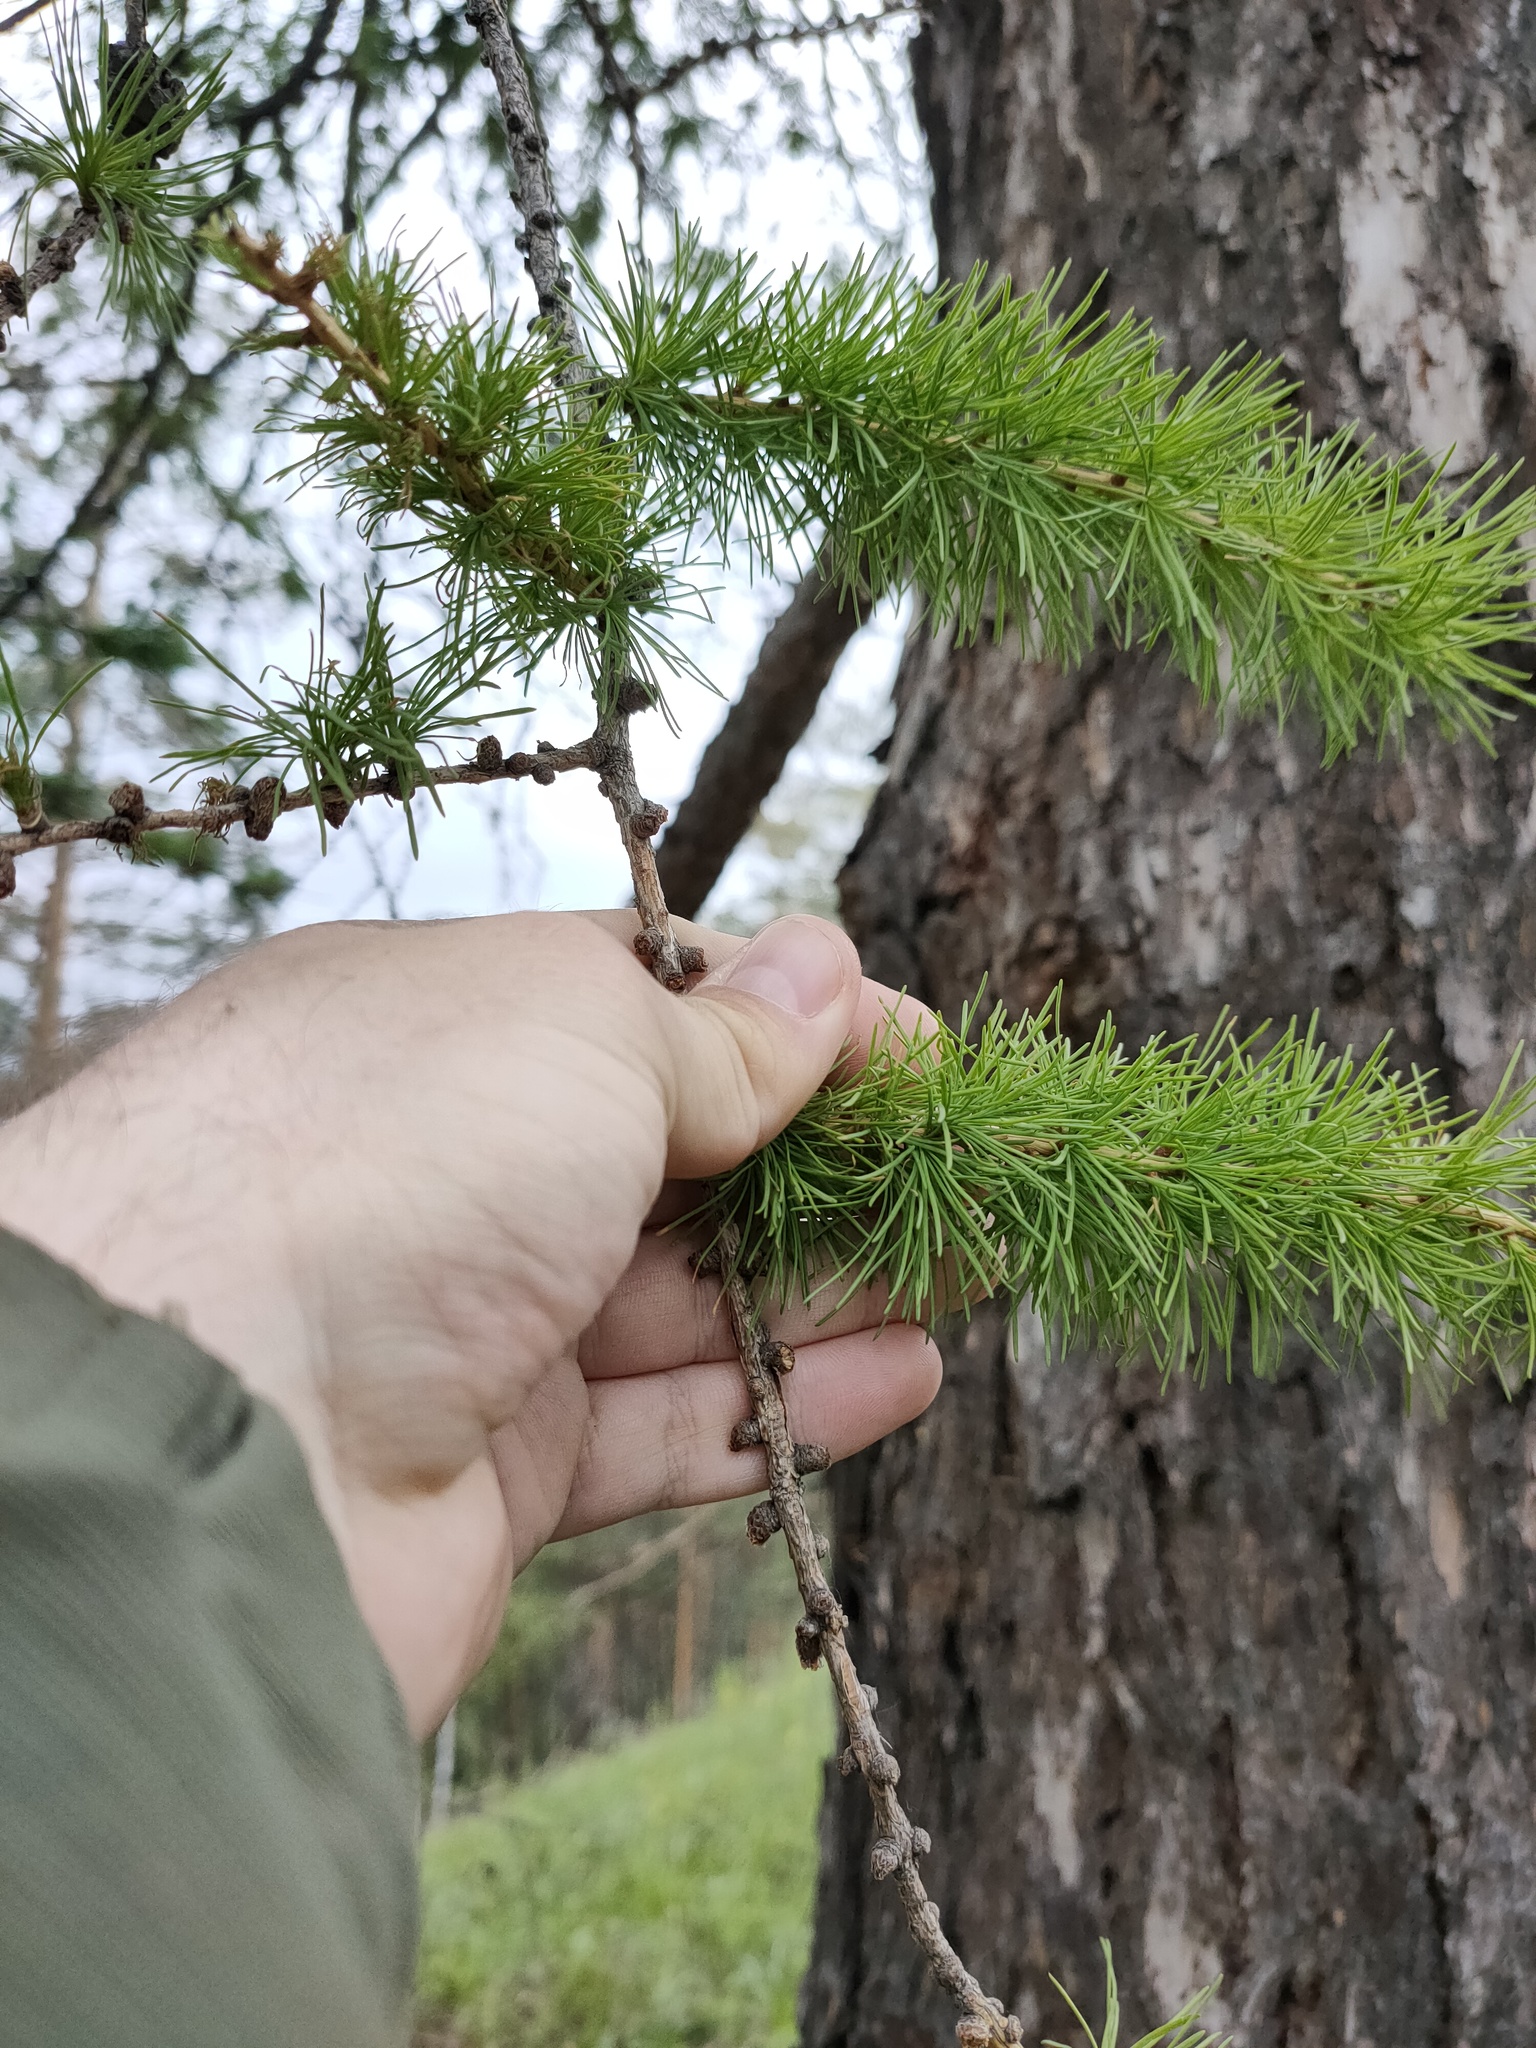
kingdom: Plantae
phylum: Tracheophyta
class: Pinopsida
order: Pinales
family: Pinaceae
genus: Larix
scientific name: Larix sibirica
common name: Siberian larch
